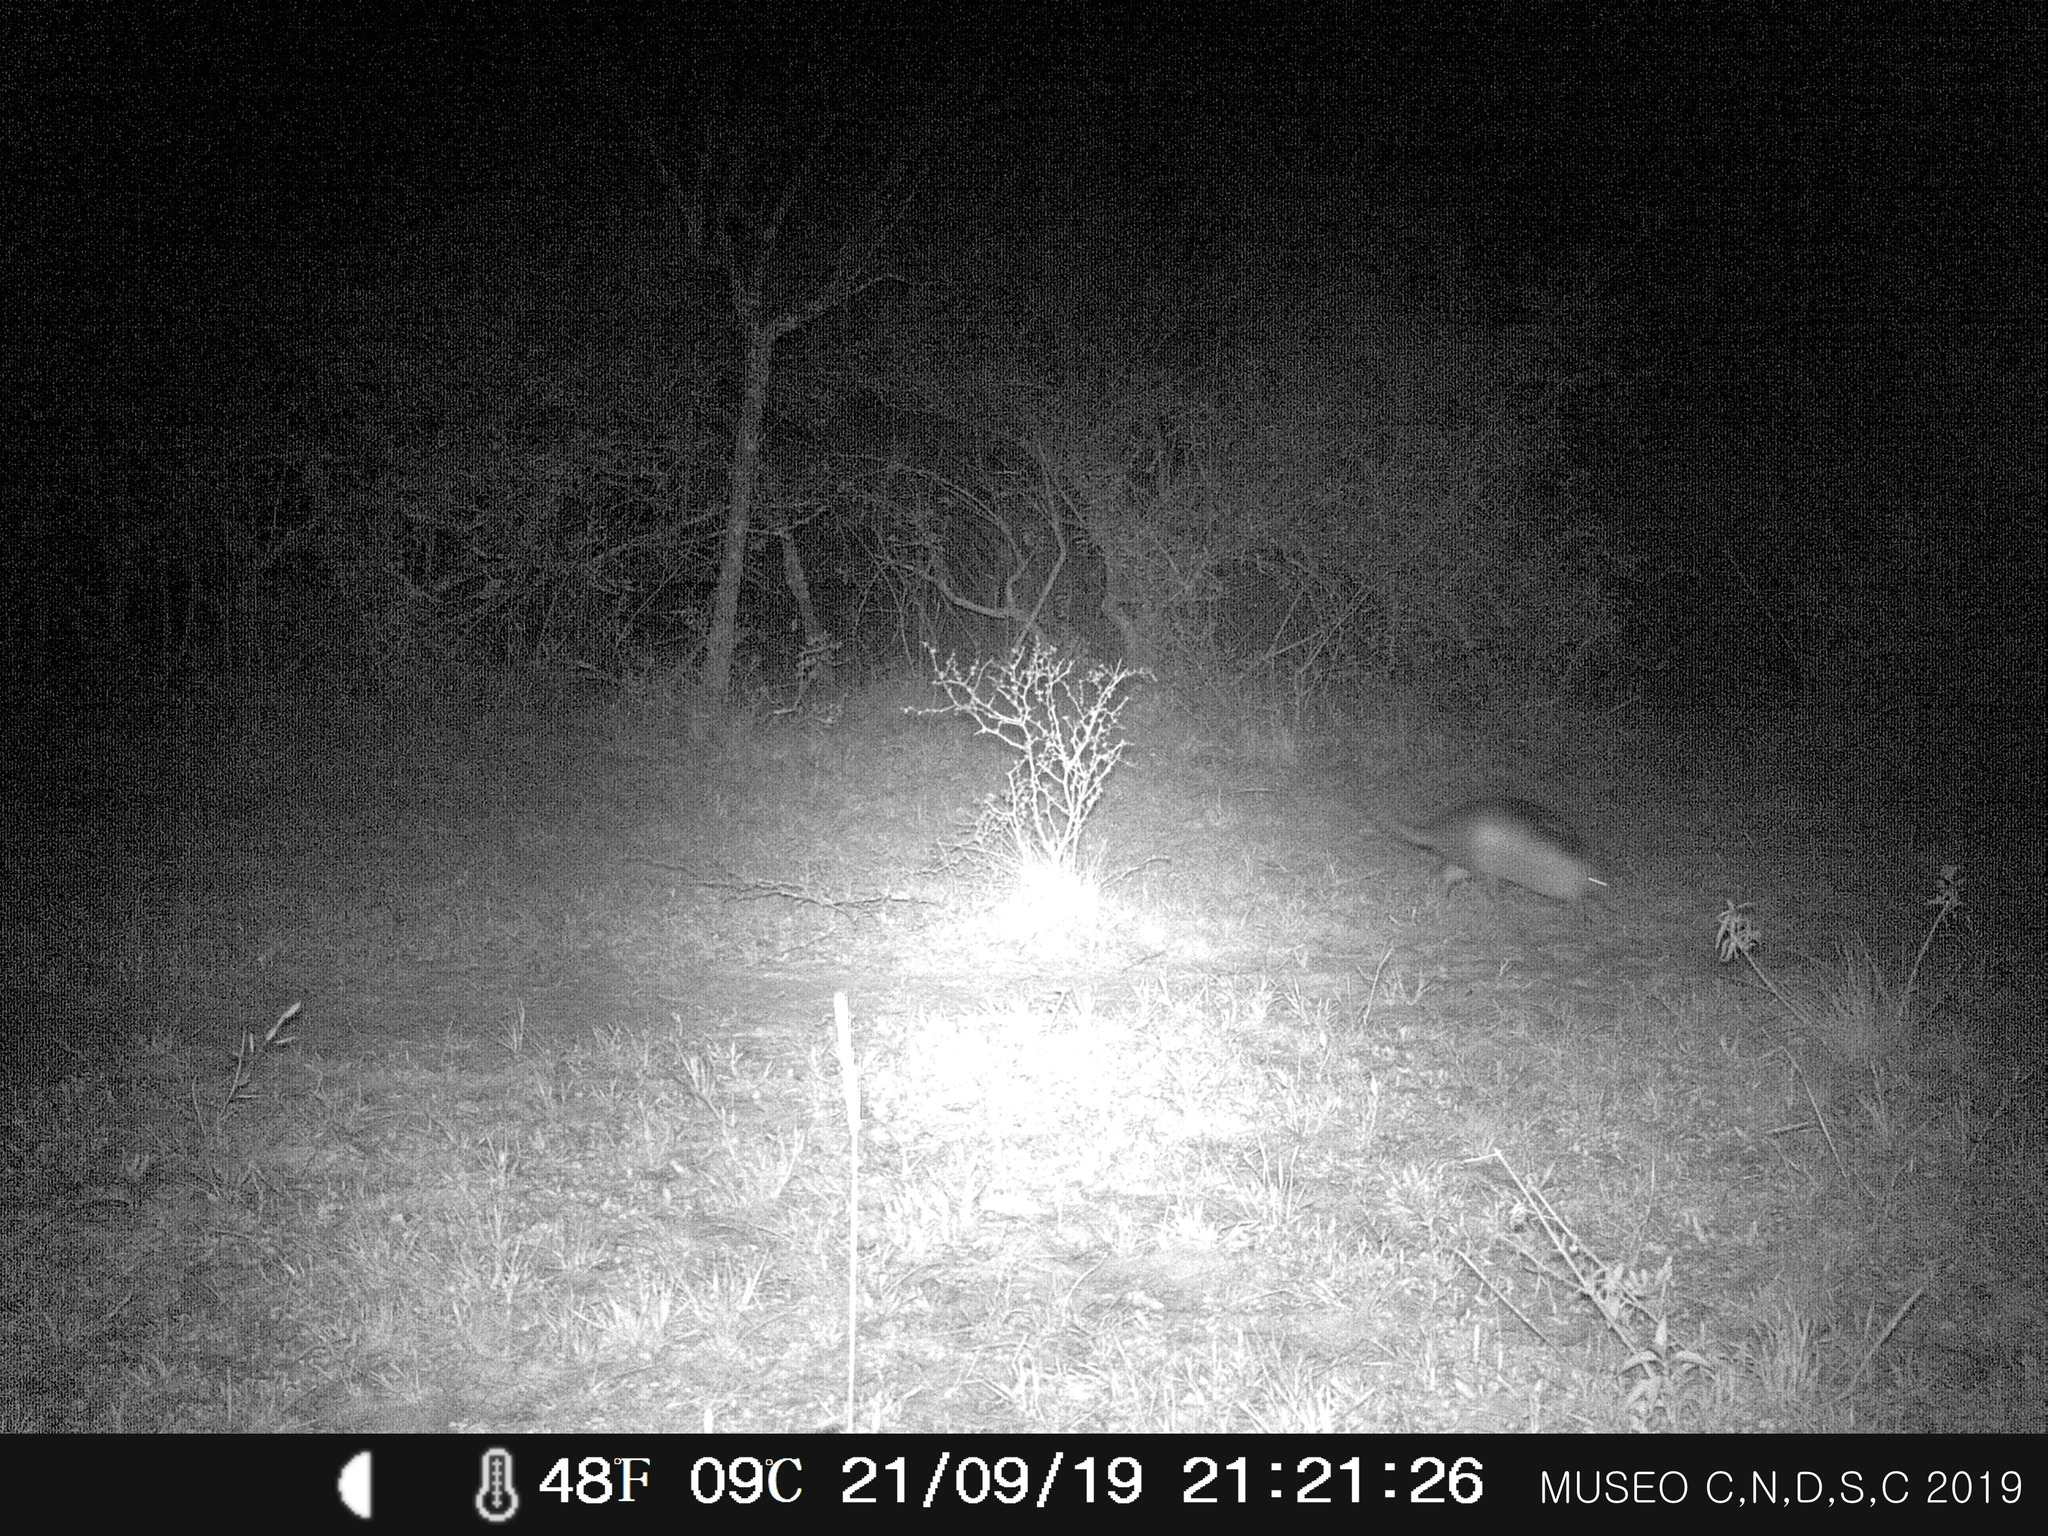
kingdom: Animalia
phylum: Chordata
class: Mammalia
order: Cingulata
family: Dasypodidae
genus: Dasypus
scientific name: Dasypus novemcinctus
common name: Nine-banded armadillo
